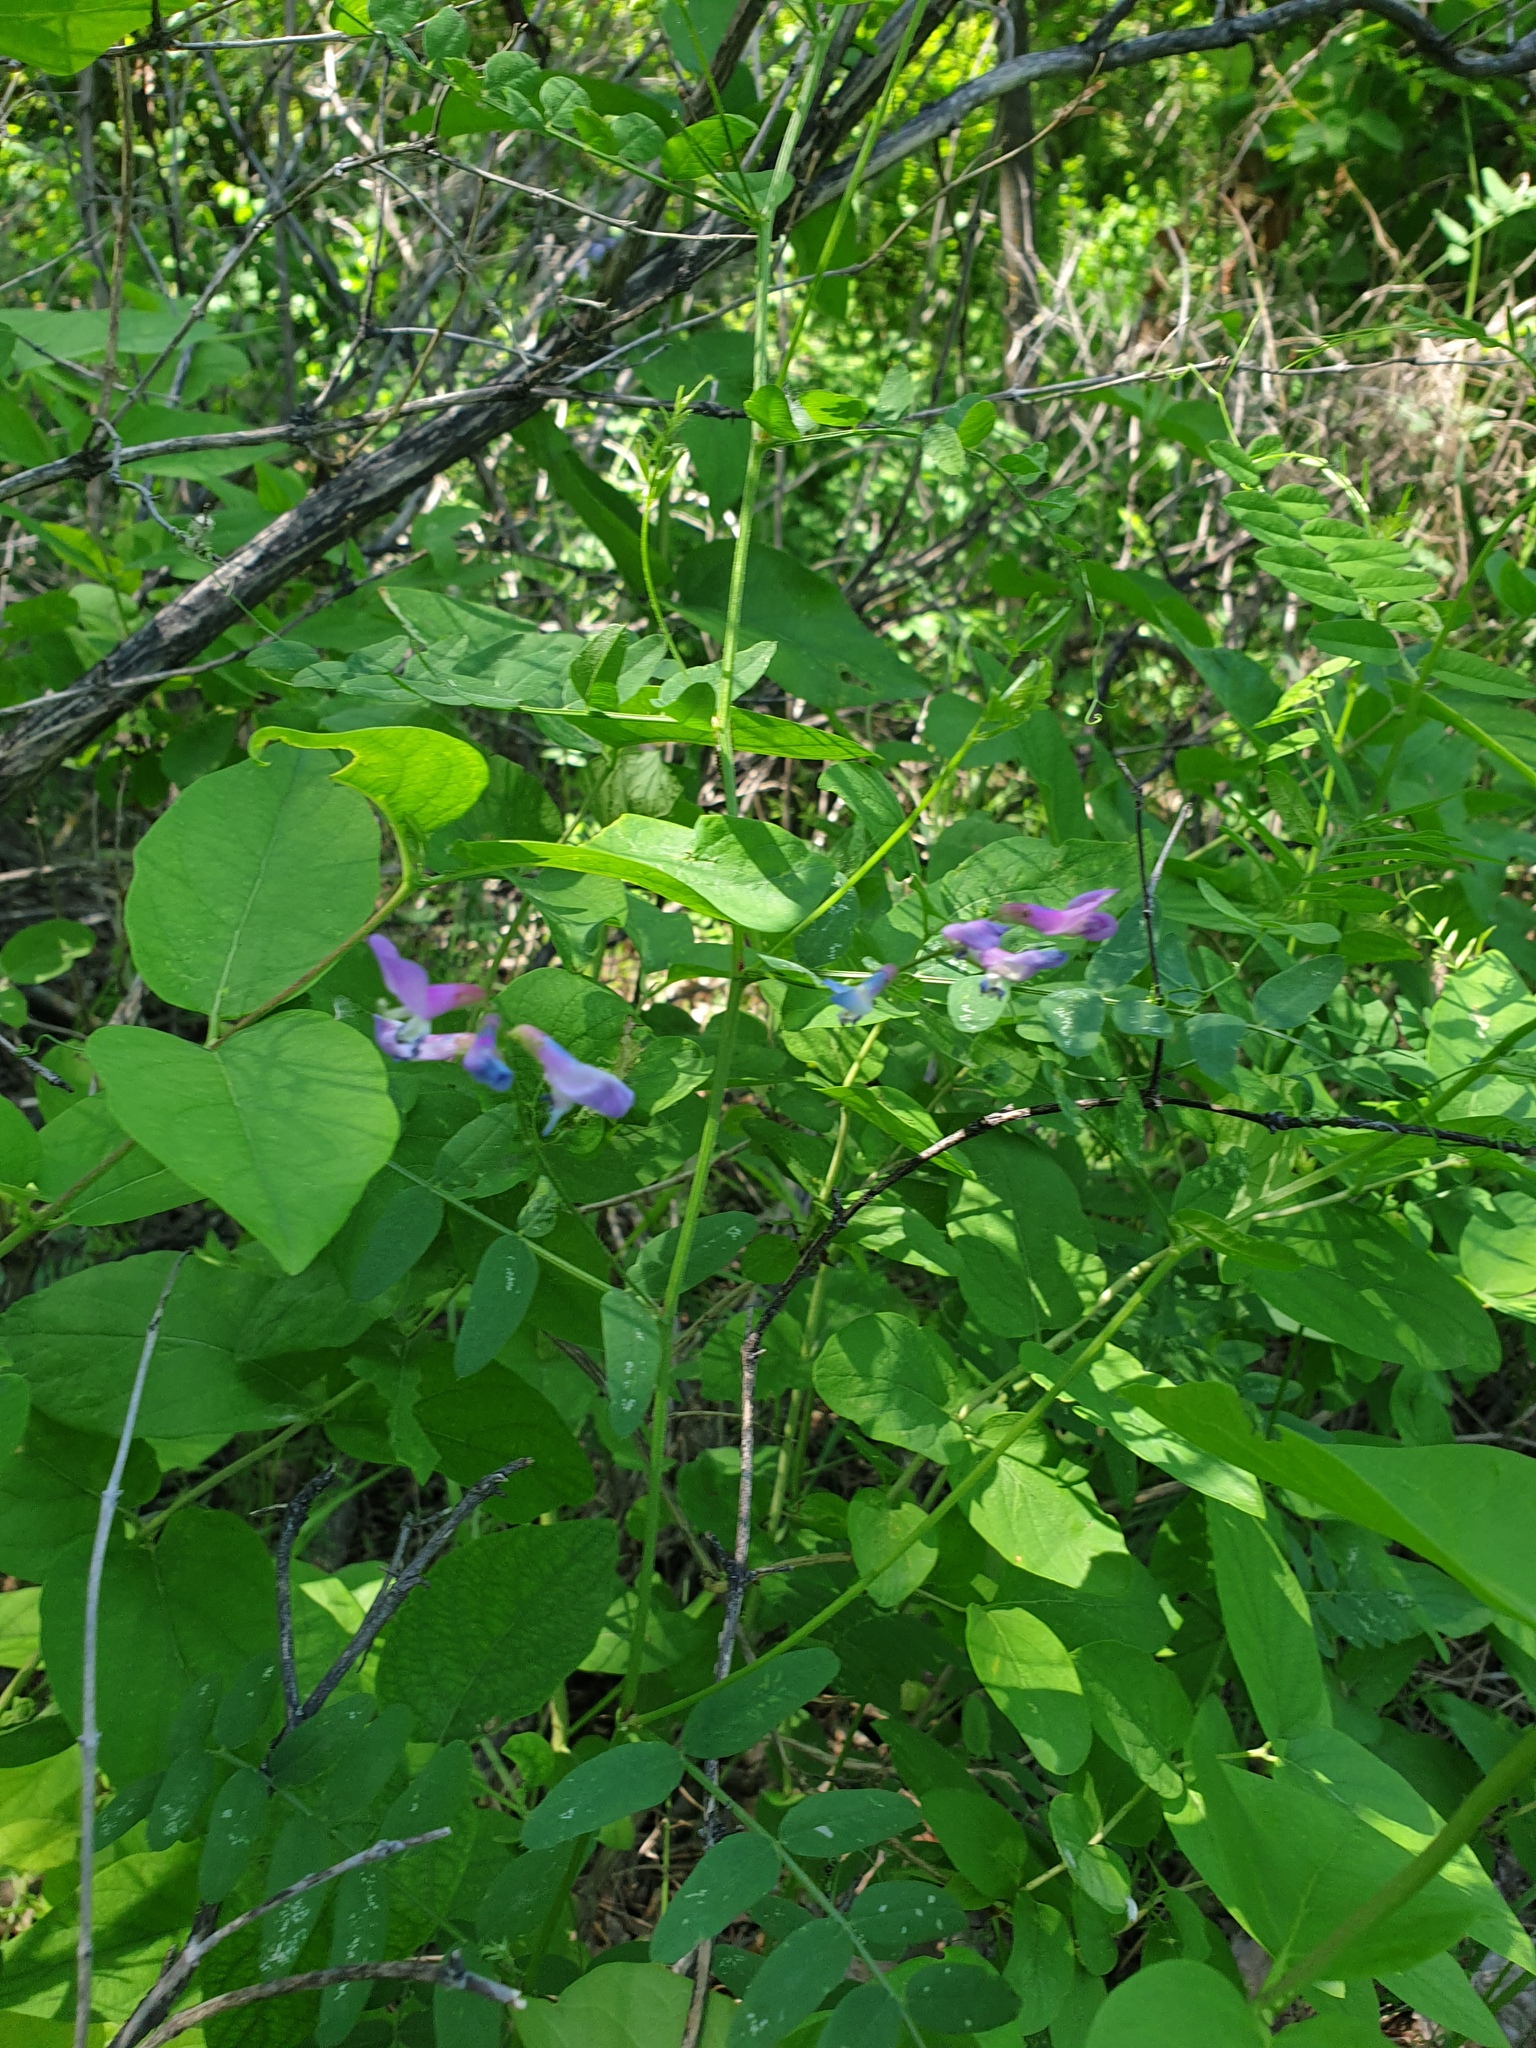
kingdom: Plantae
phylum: Tracheophyta
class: Magnoliopsida
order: Fabales
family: Fabaceae
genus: Vicia
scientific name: Vicia americana
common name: American vetch
